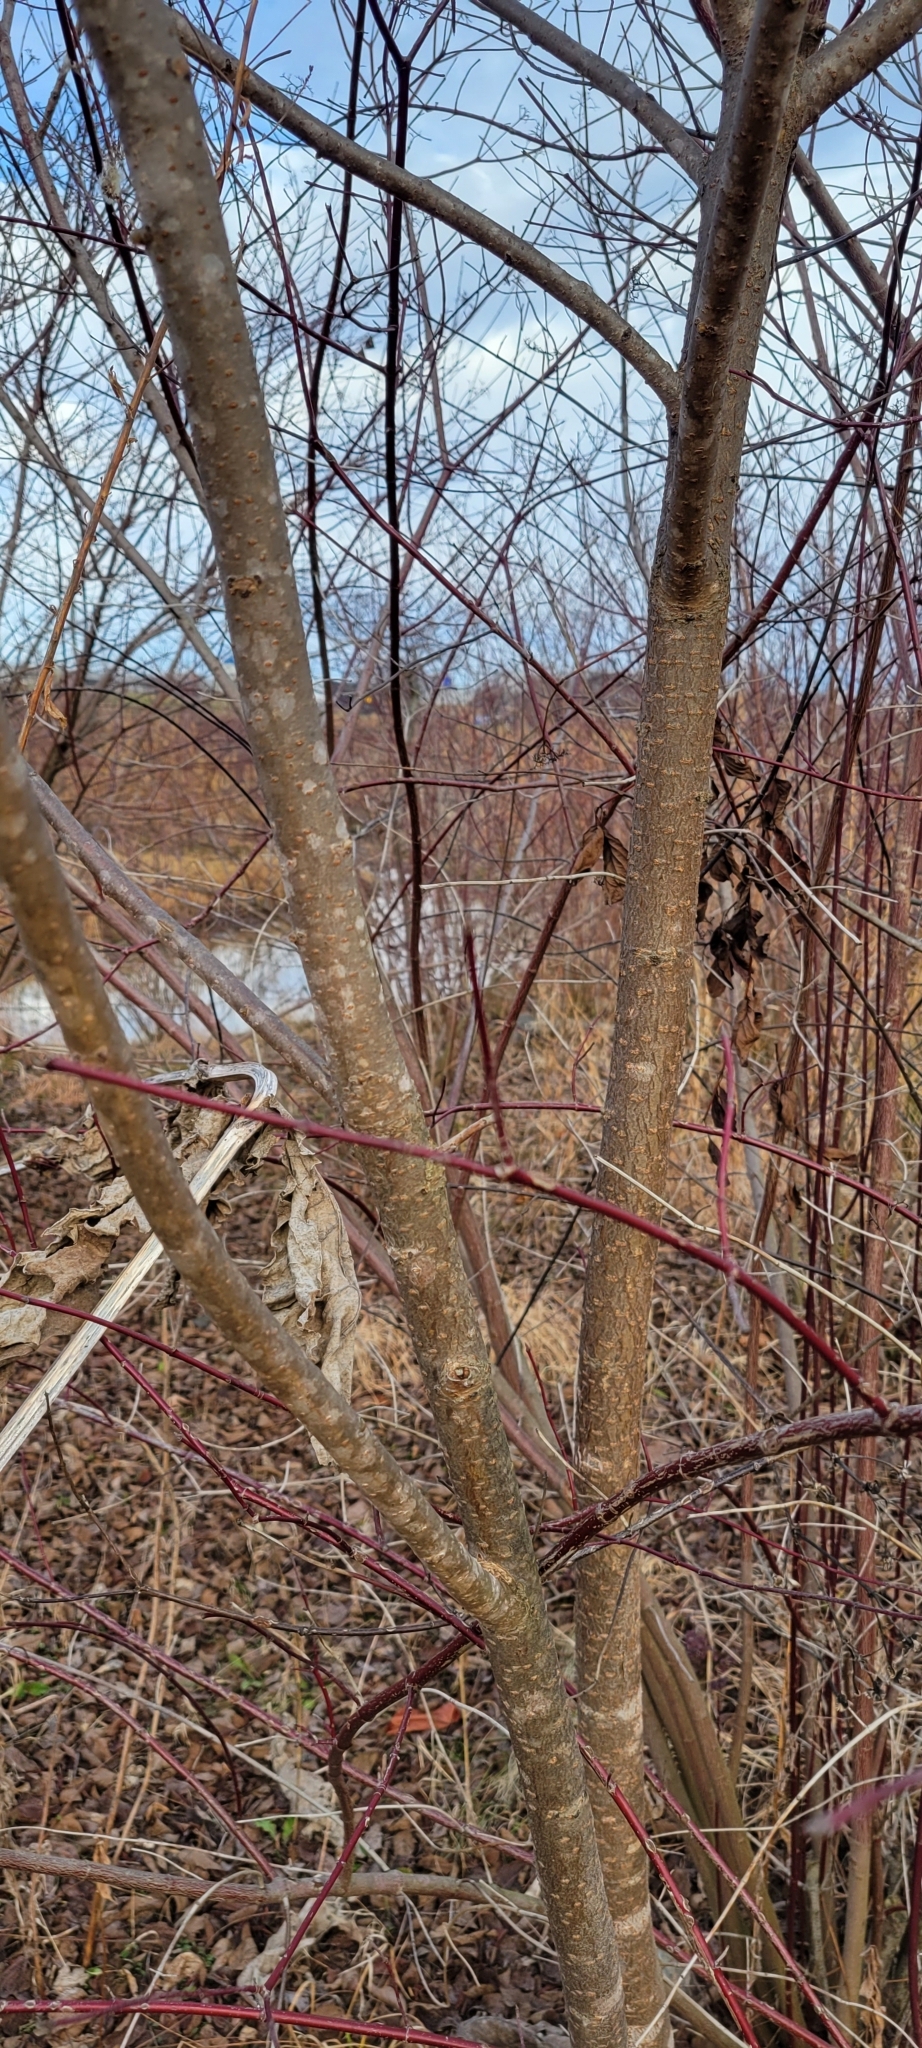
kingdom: Plantae
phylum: Tracheophyta
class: Magnoliopsida
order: Sapindales
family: Anacardiaceae
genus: Rhus
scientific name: Rhus typhina
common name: Staghorn sumac
